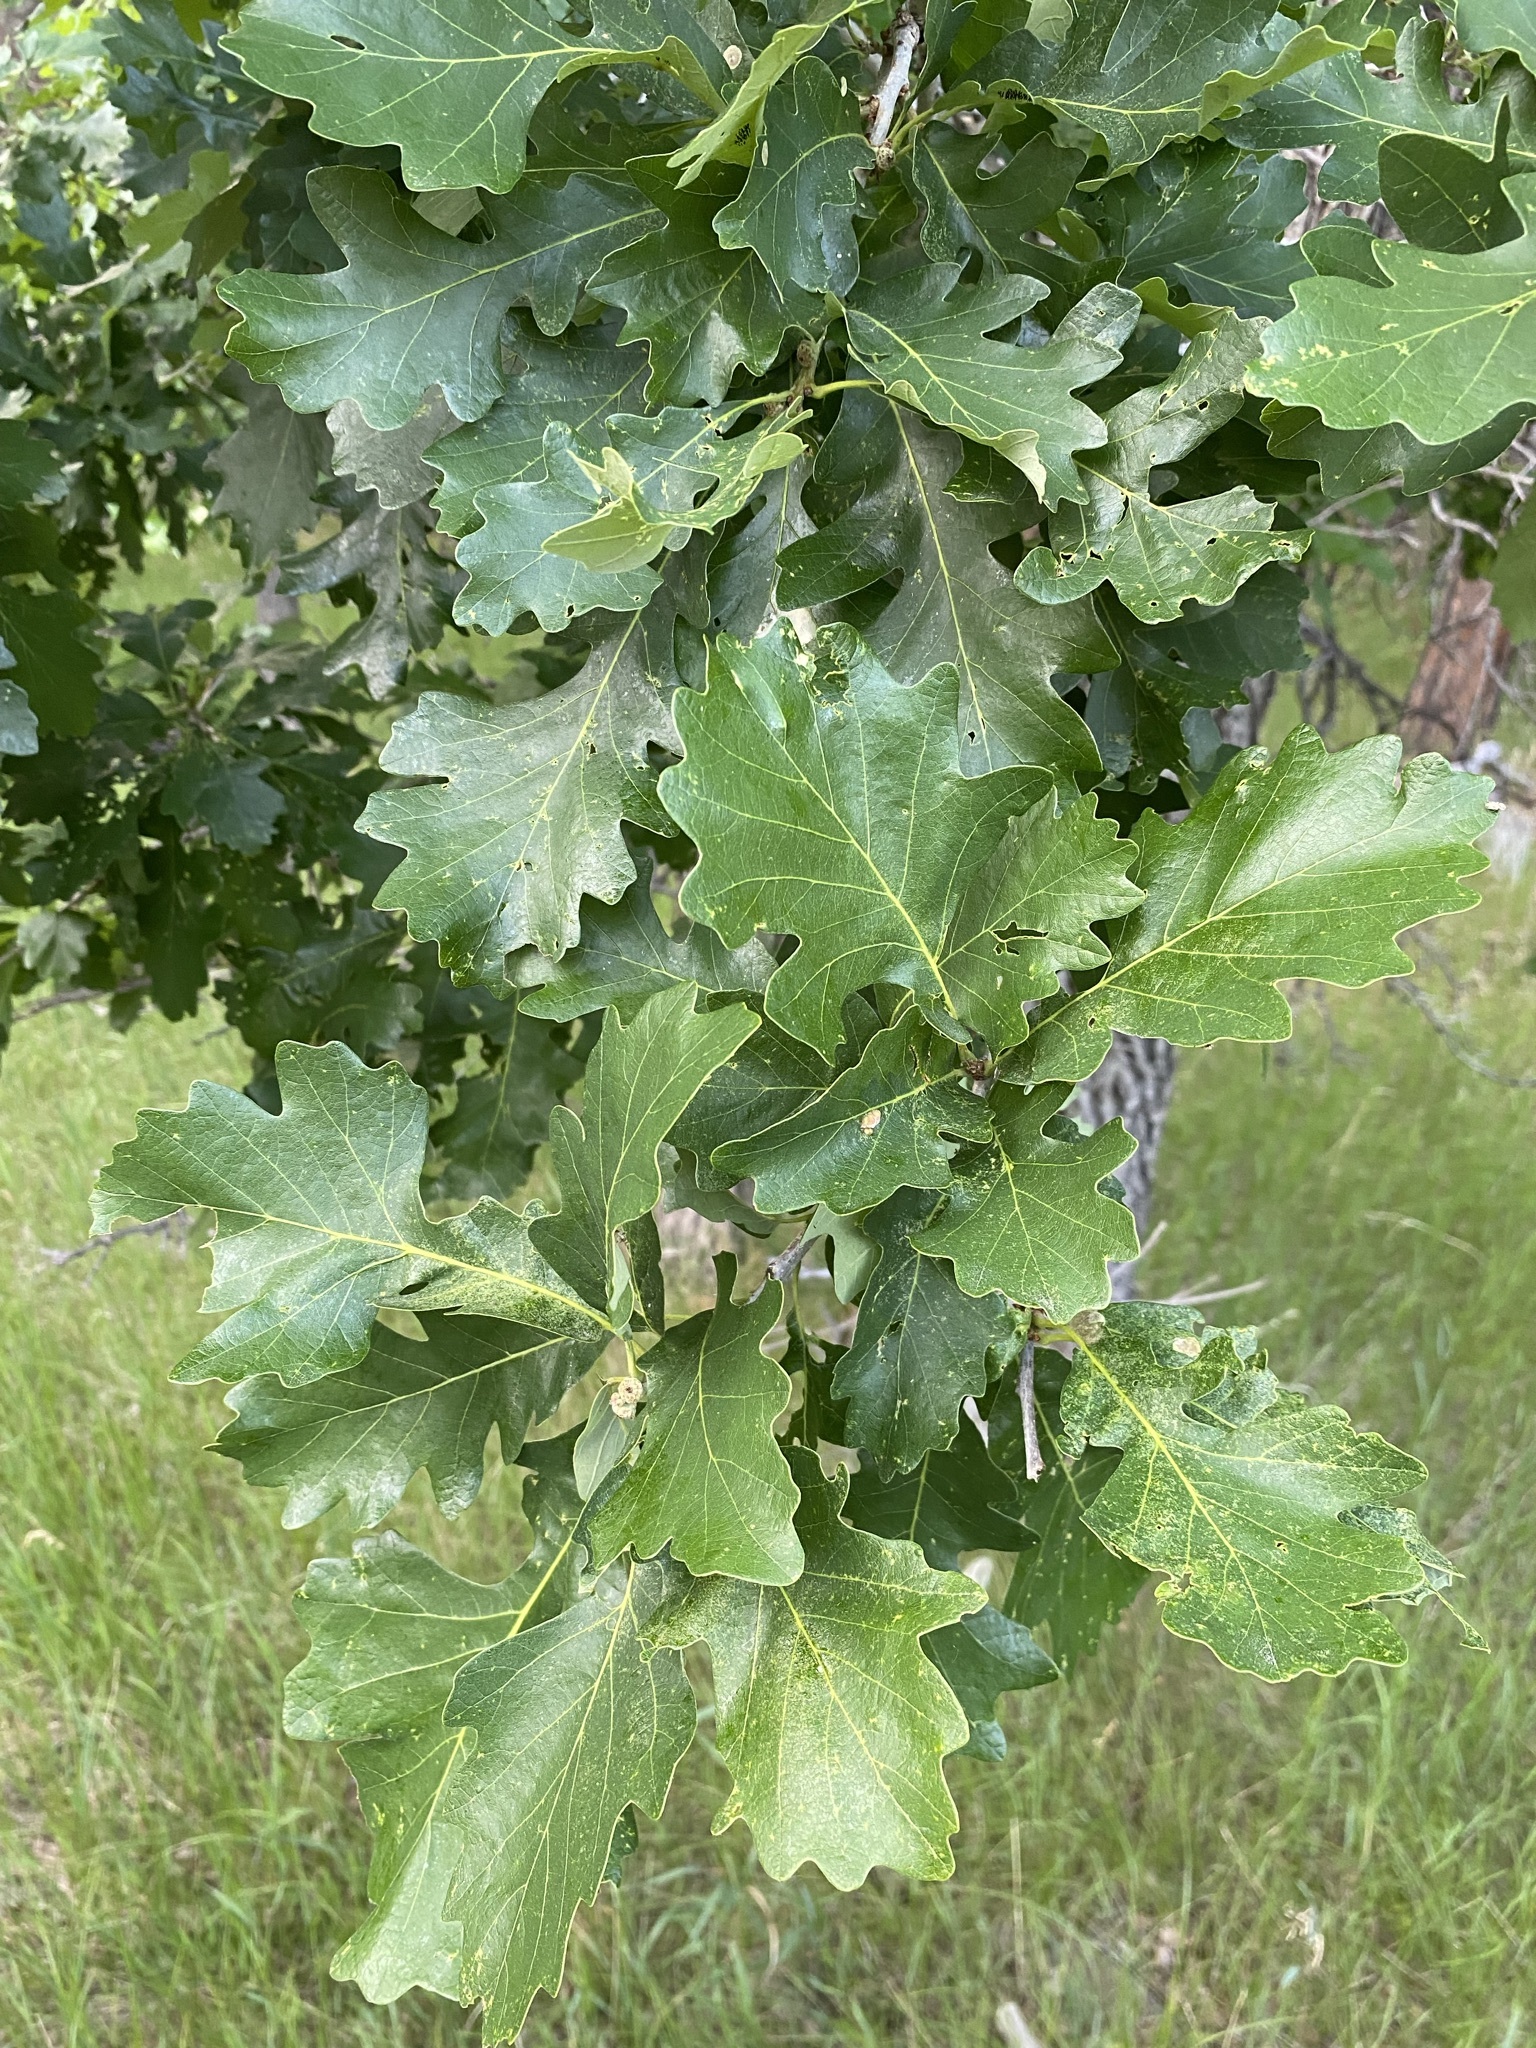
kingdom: Plantae
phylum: Tracheophyta
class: Magnoliopsida
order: Fagales
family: Fagaceae
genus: Quercus
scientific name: Quercus macrocarpa
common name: Bur oak
